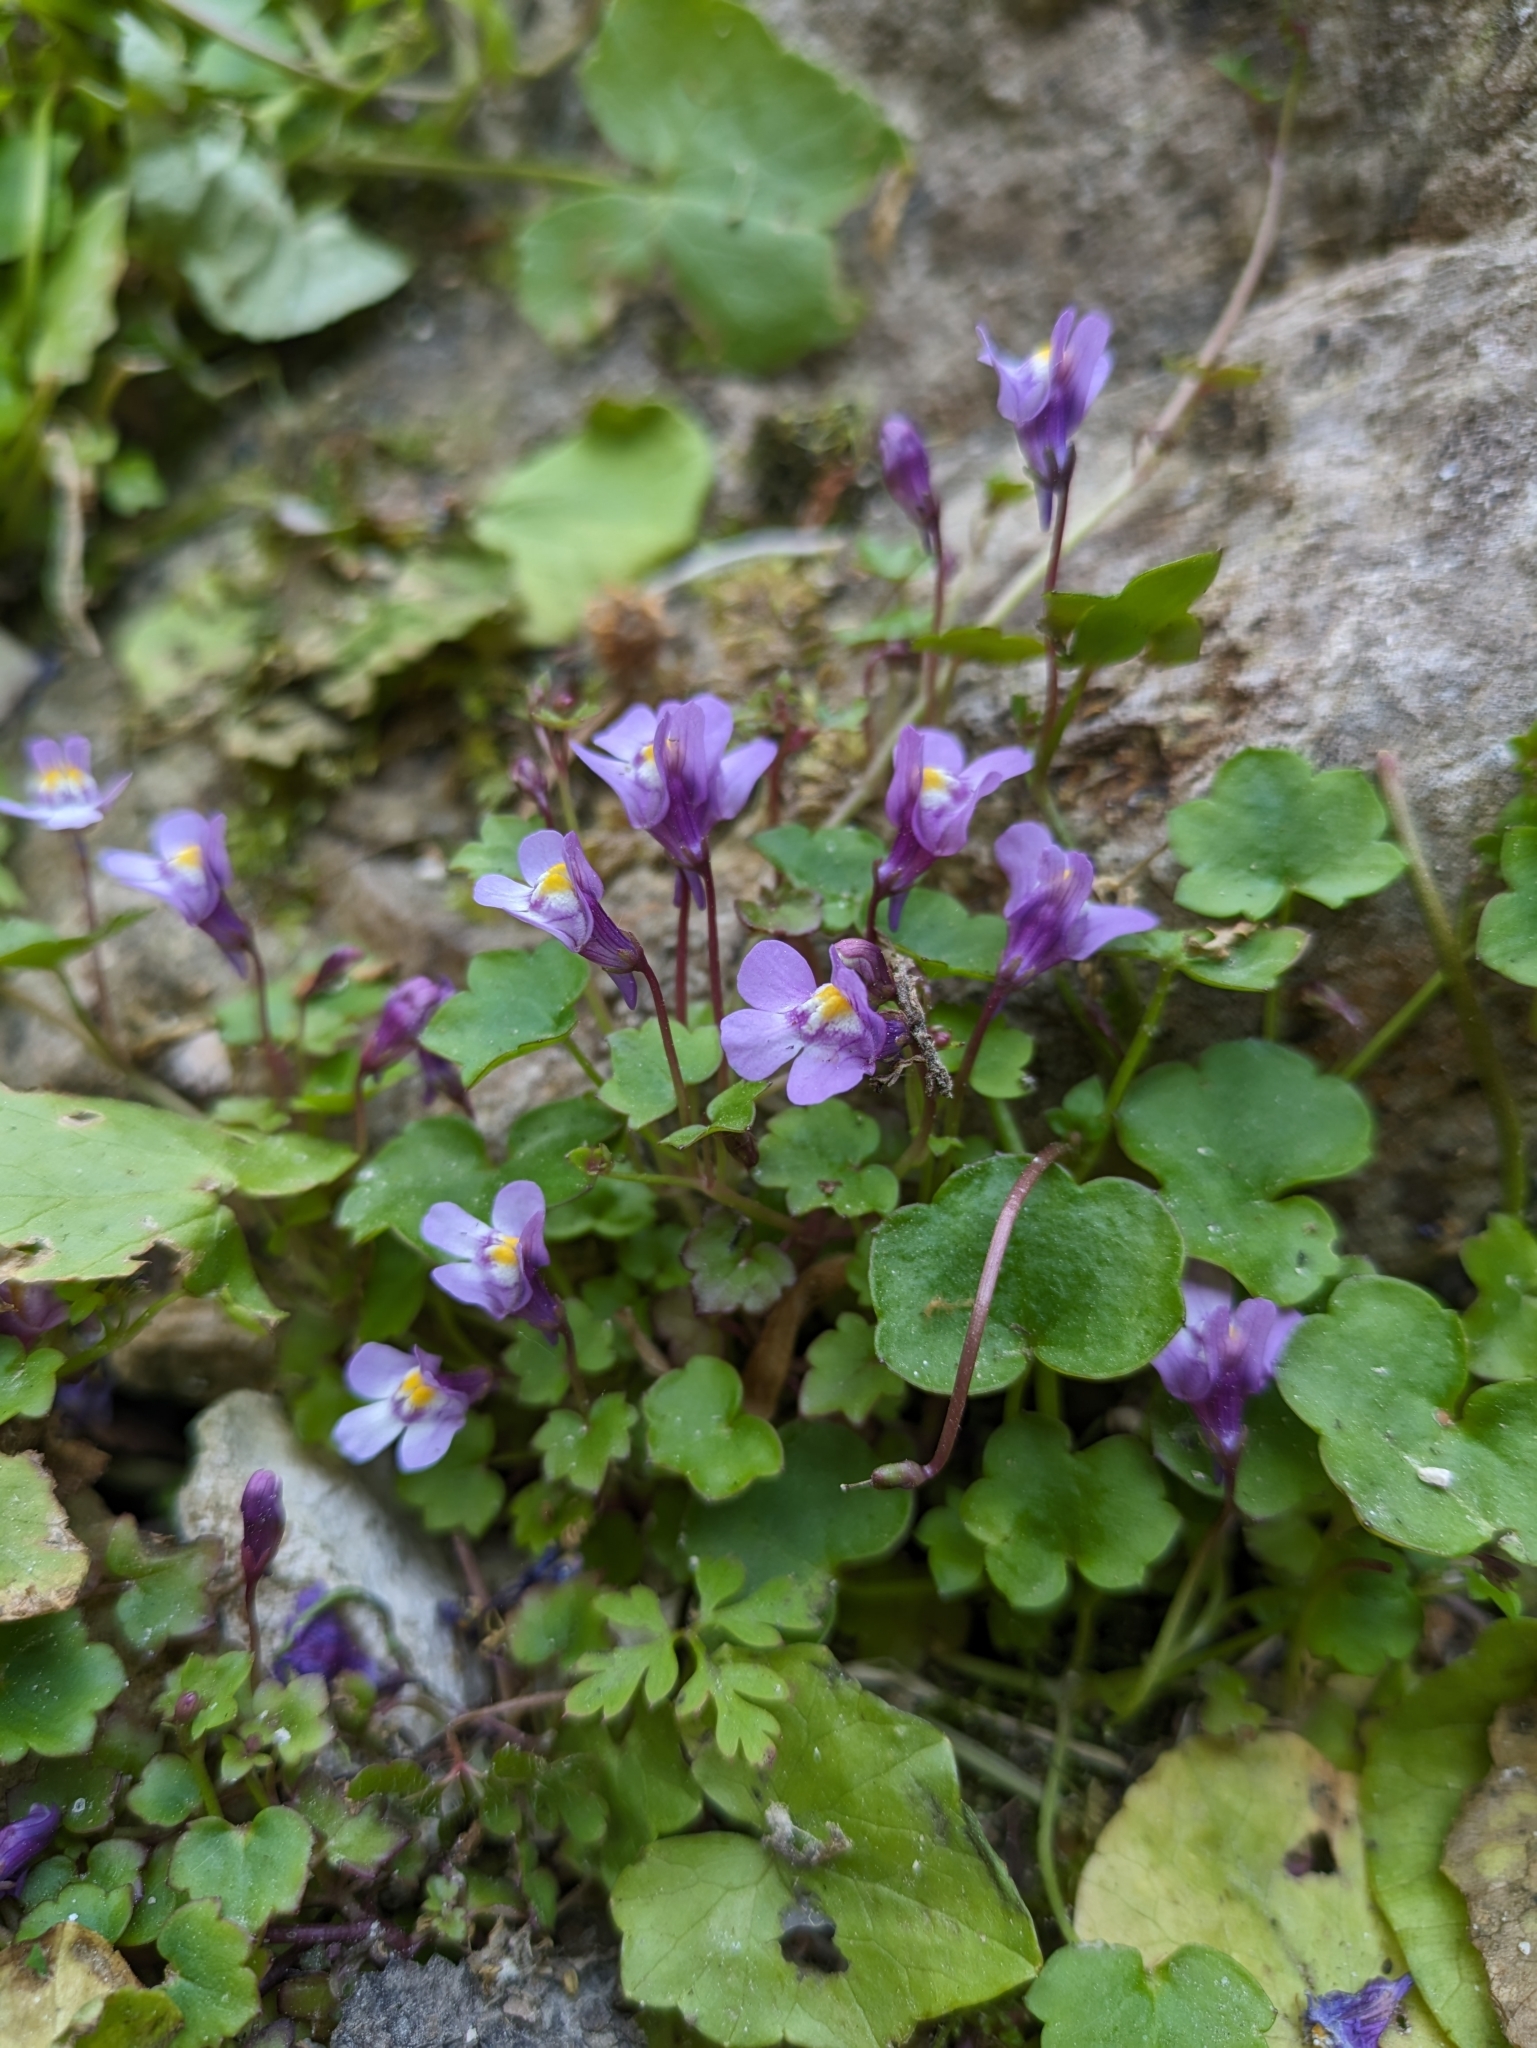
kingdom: Plantae
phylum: Tracheophyta
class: Magnoliopsida
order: Lamiales
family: Plantaginaceae
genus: Cymbalaria
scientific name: Cymbalaria muralis
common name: Ivy-leaved toadflax
